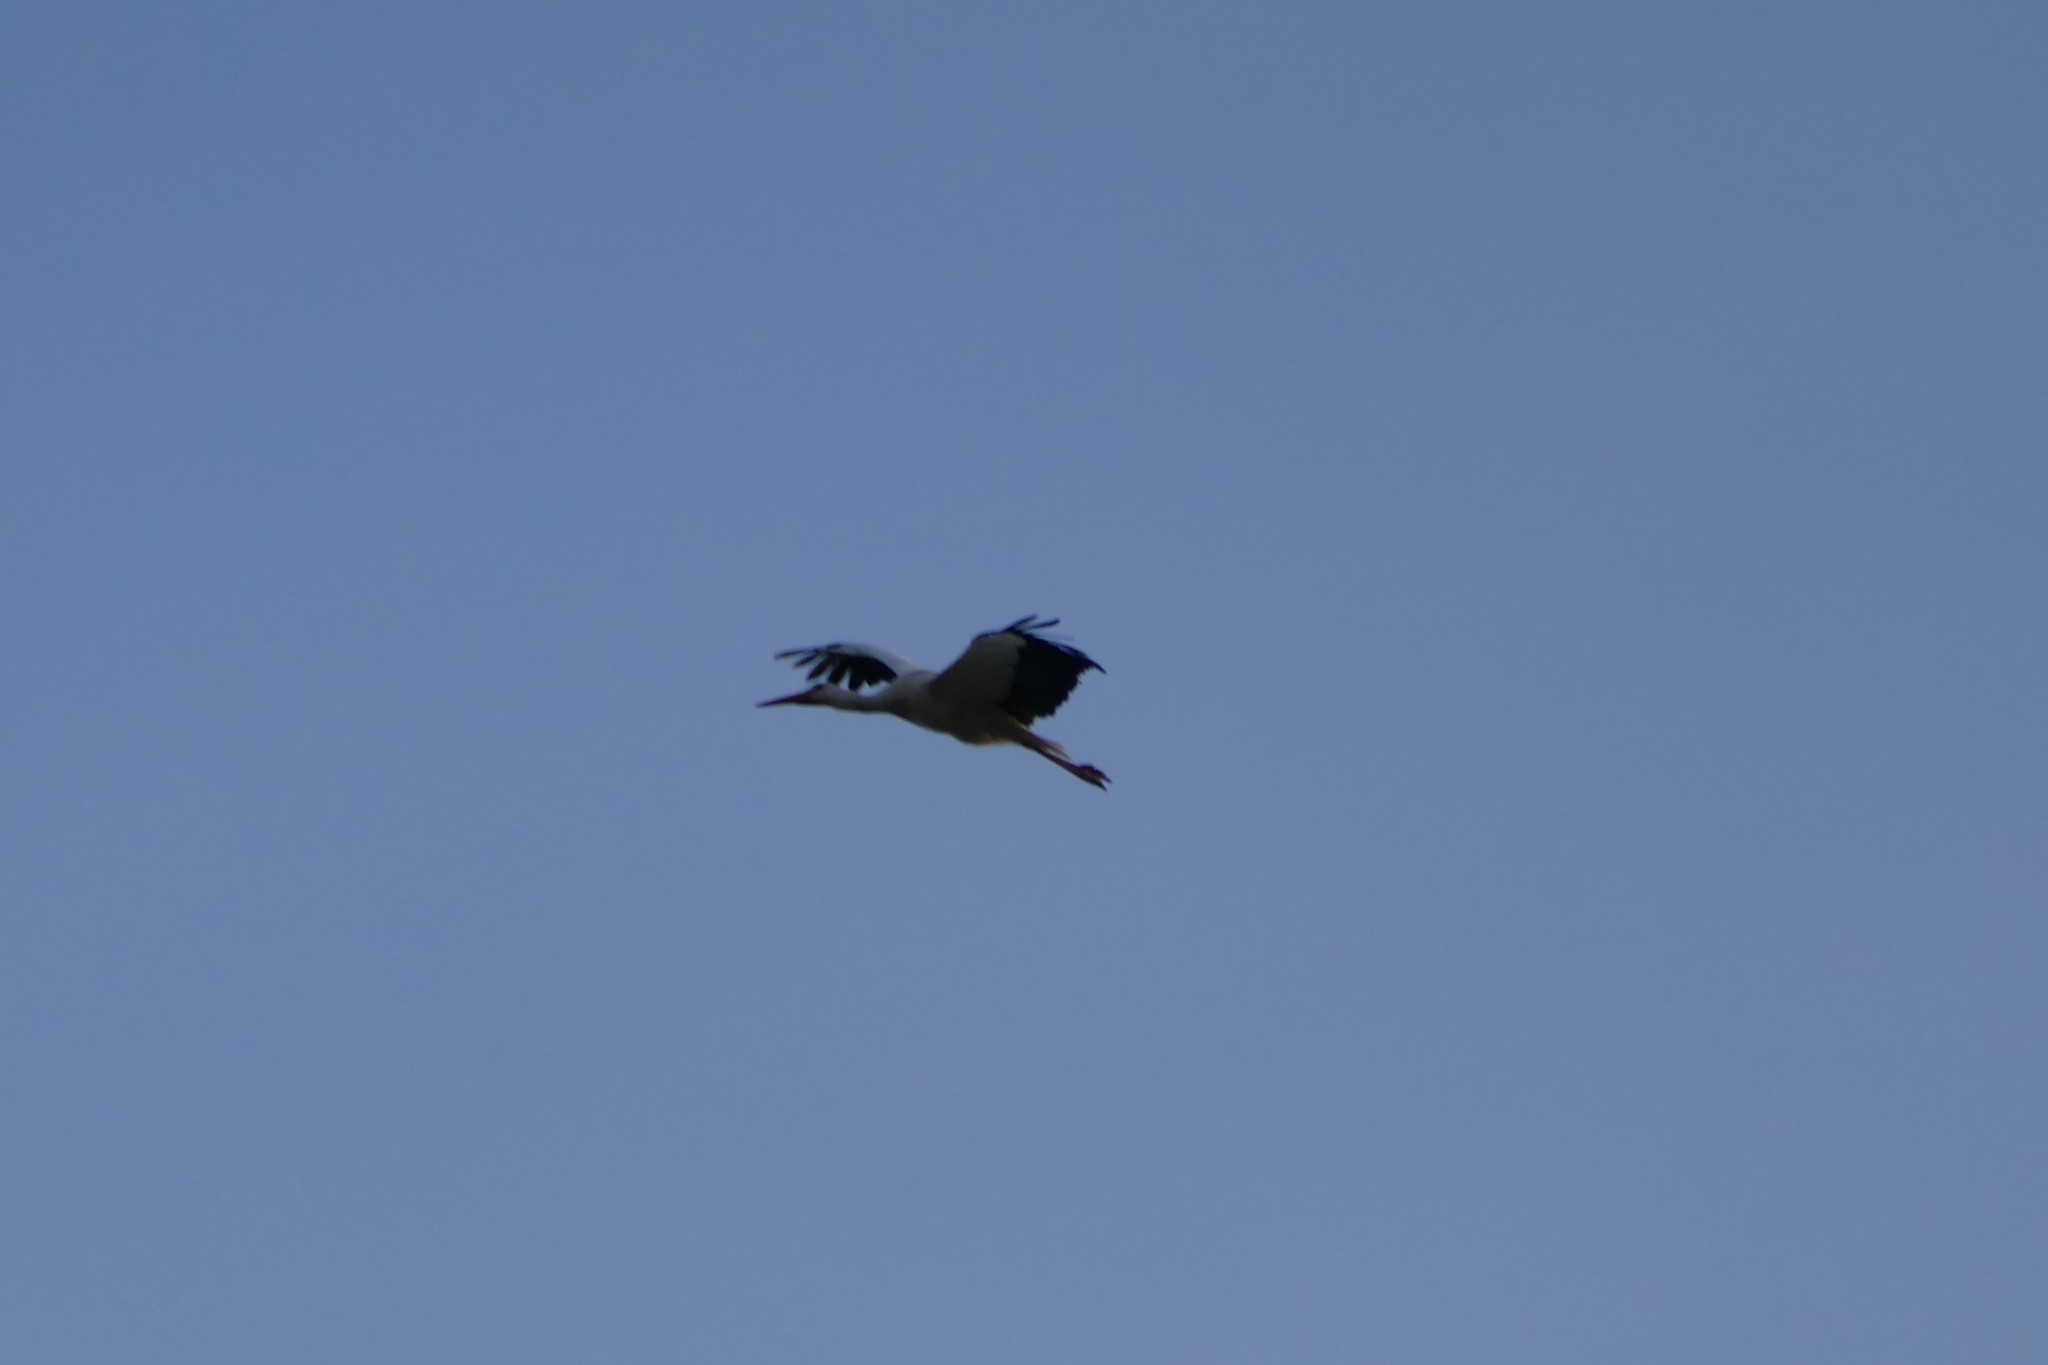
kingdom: Animalia
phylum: Chordata
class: Aves
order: Ciconiiformes
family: Ciconiidae
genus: Ciconia
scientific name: Ciconia ciconia
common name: White stork
